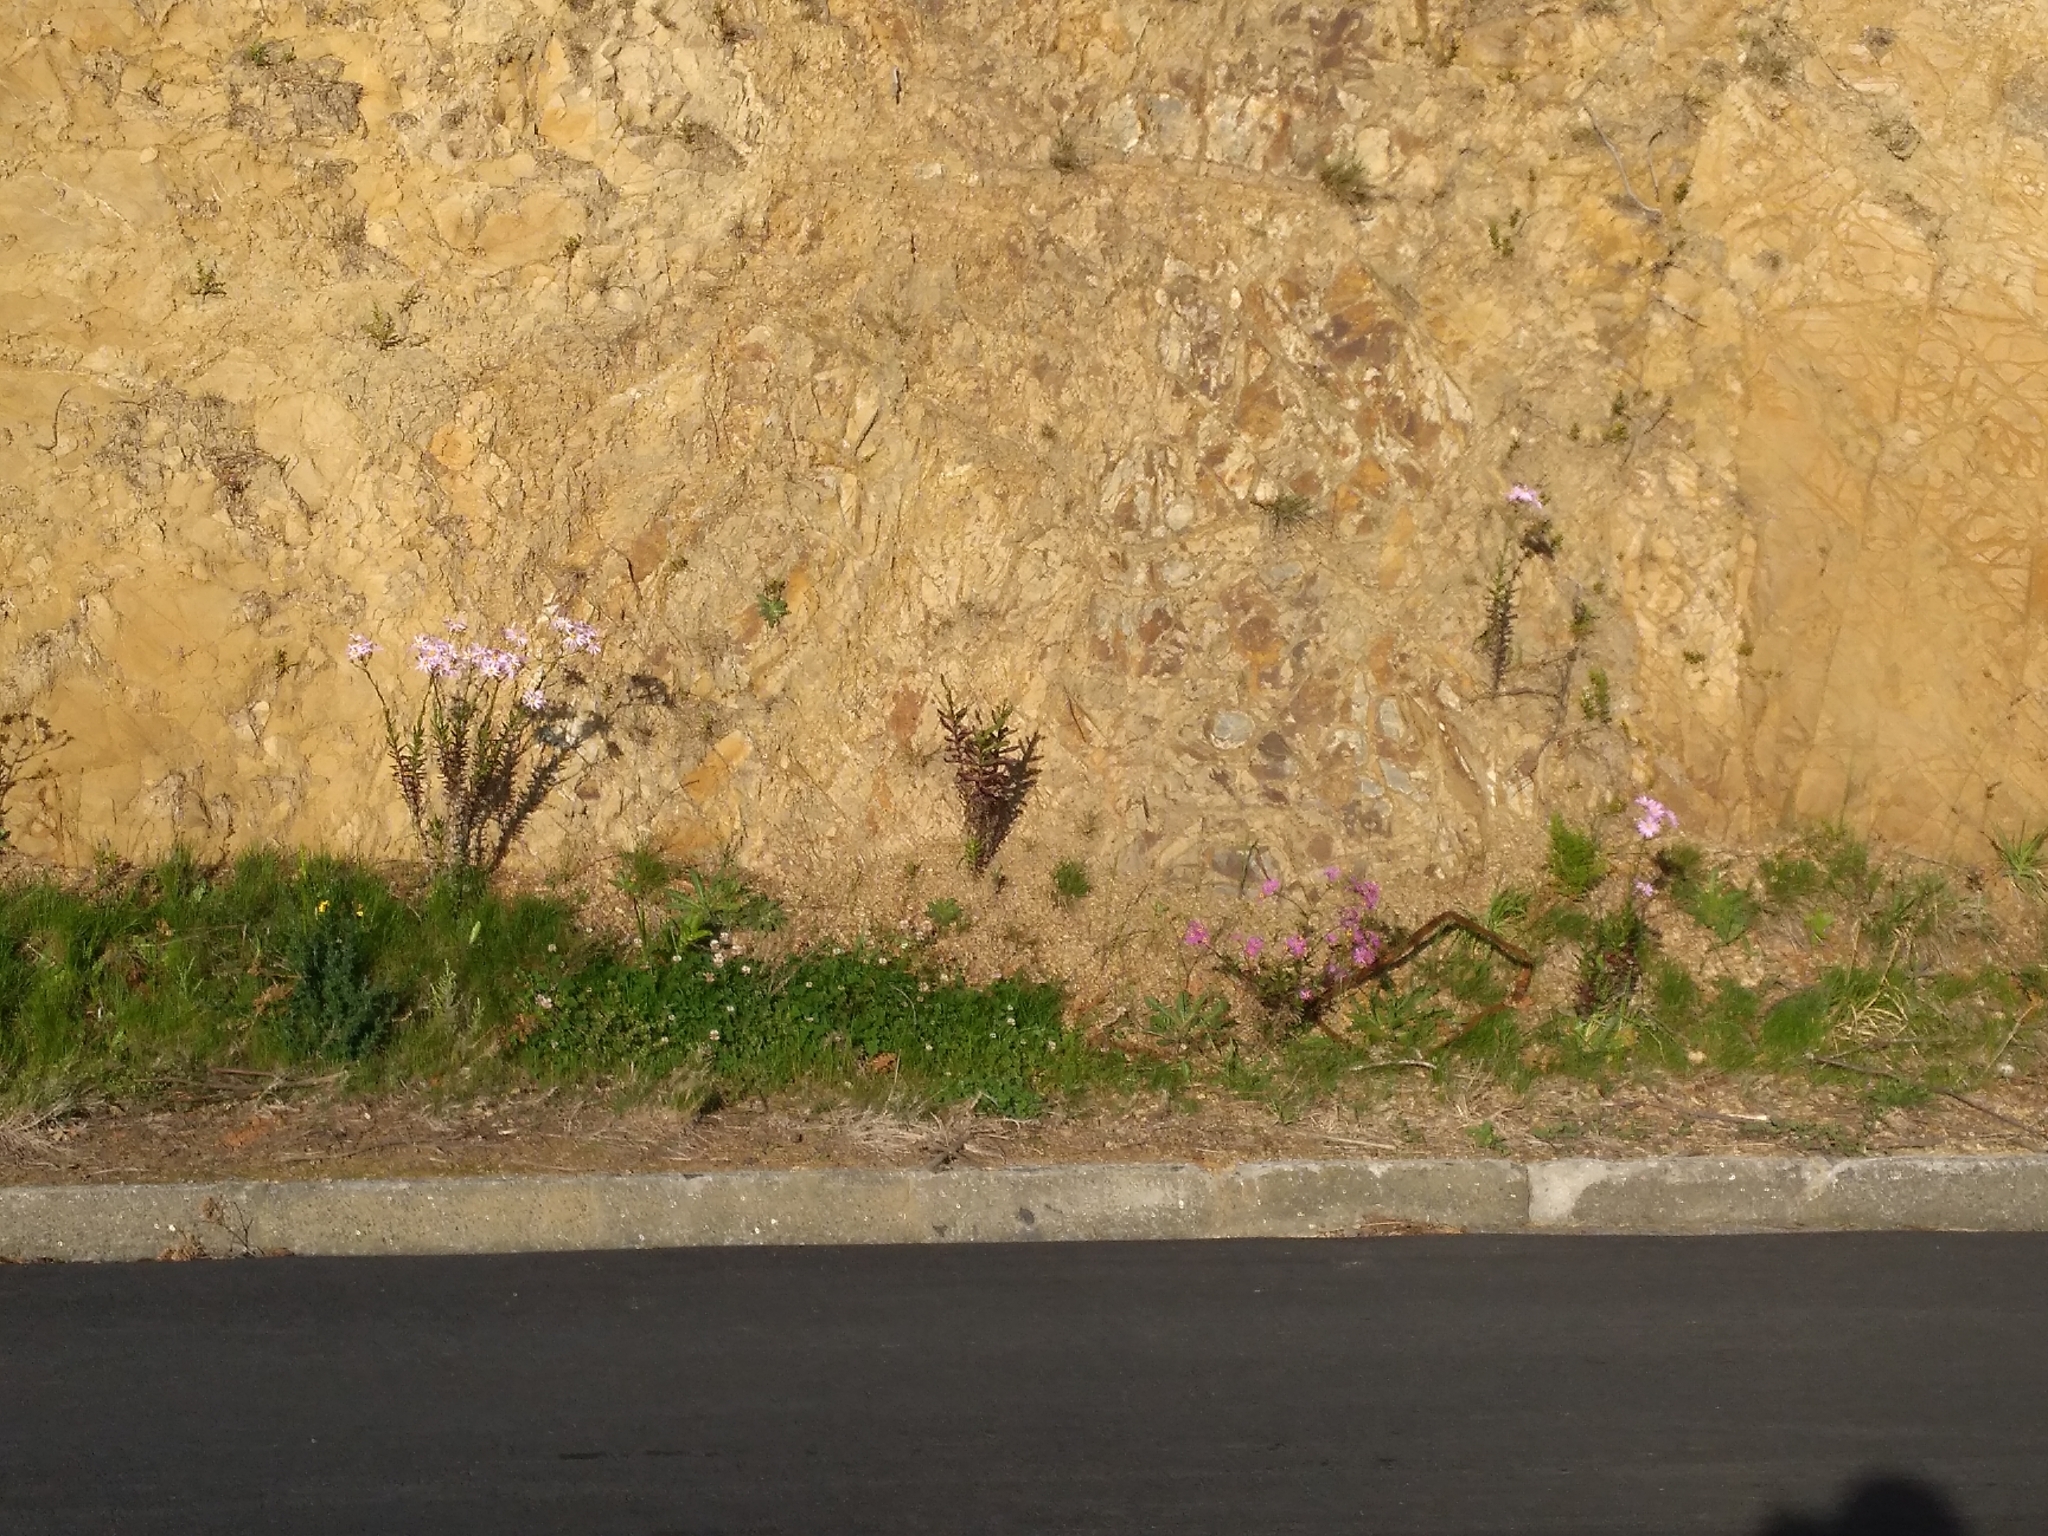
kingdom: Plantae
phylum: Tracheophyta
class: Magnoliopsida
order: Asterales
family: Asteraceae
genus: Senecio
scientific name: Senecio glastifolius
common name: Woad-leaved ragwort
